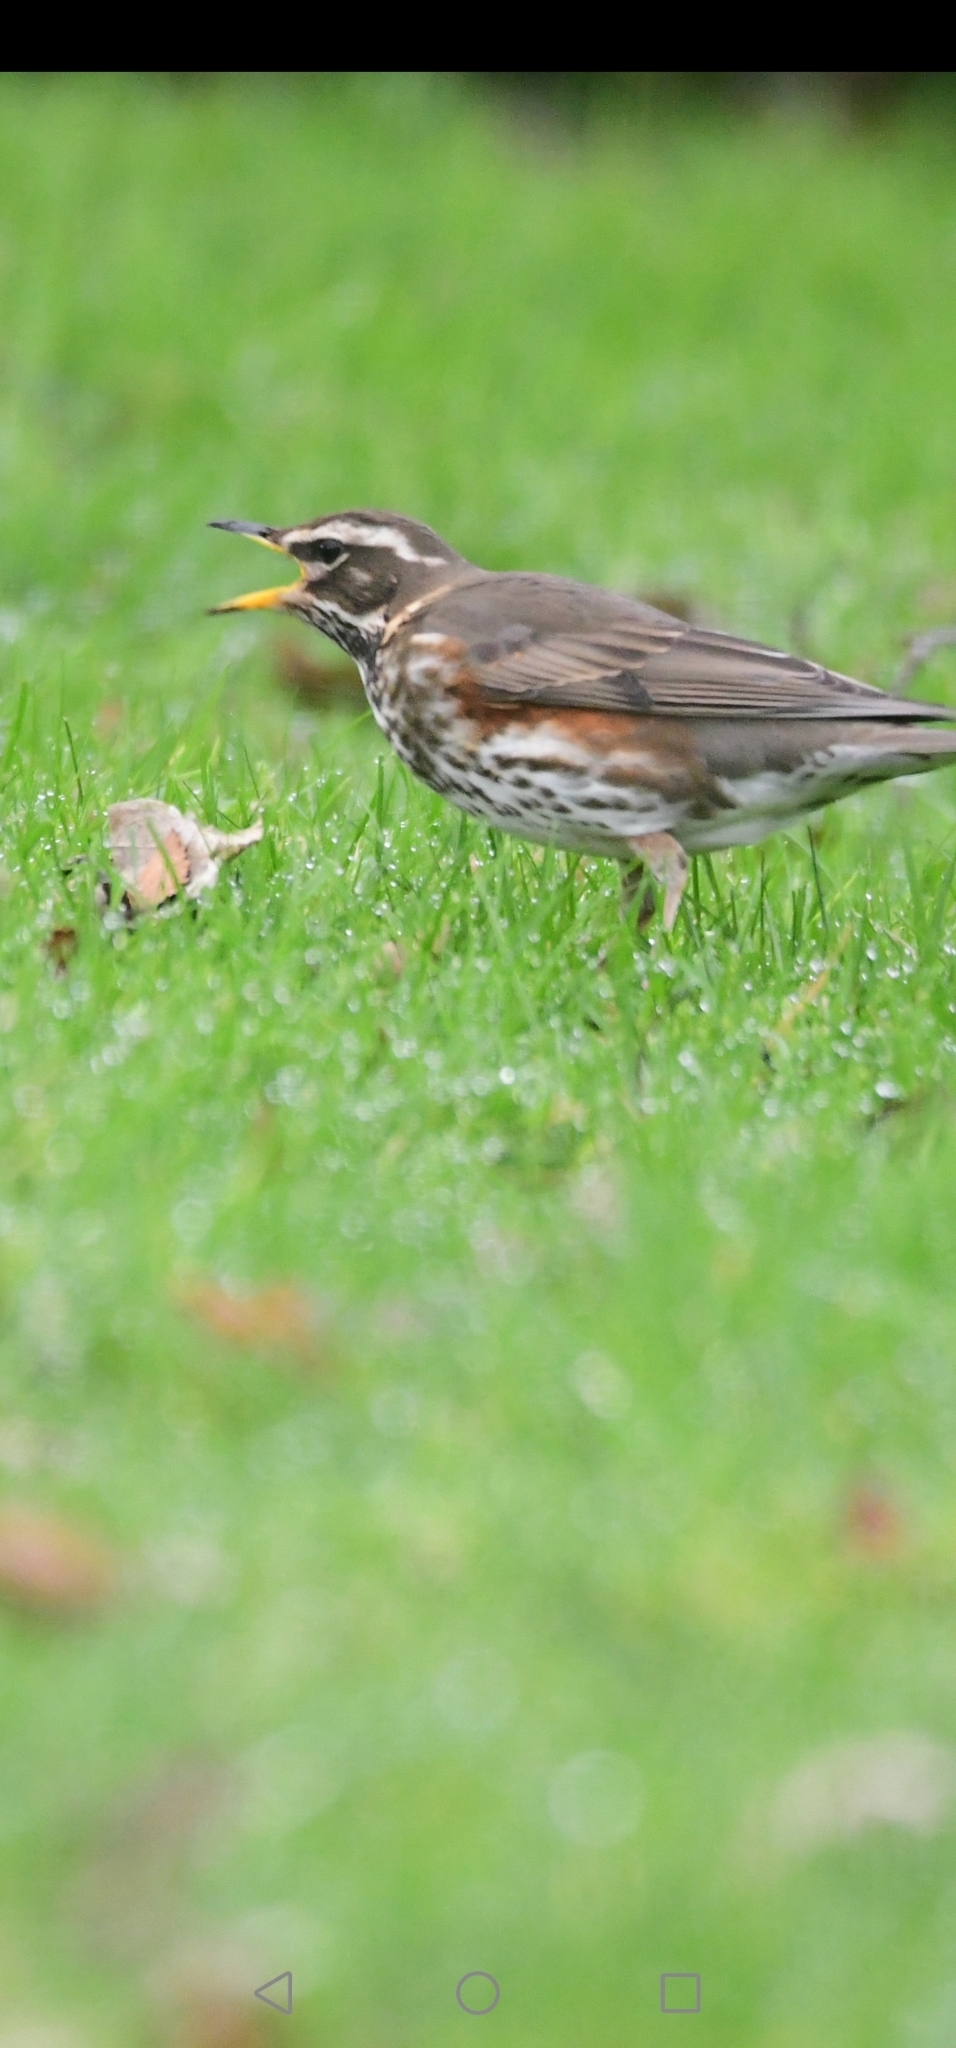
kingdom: Animalia
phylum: Chordata
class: Aves
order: Passeriformes
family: Turdidae
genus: Turdus
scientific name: Turdus iliacus
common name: Redwing
